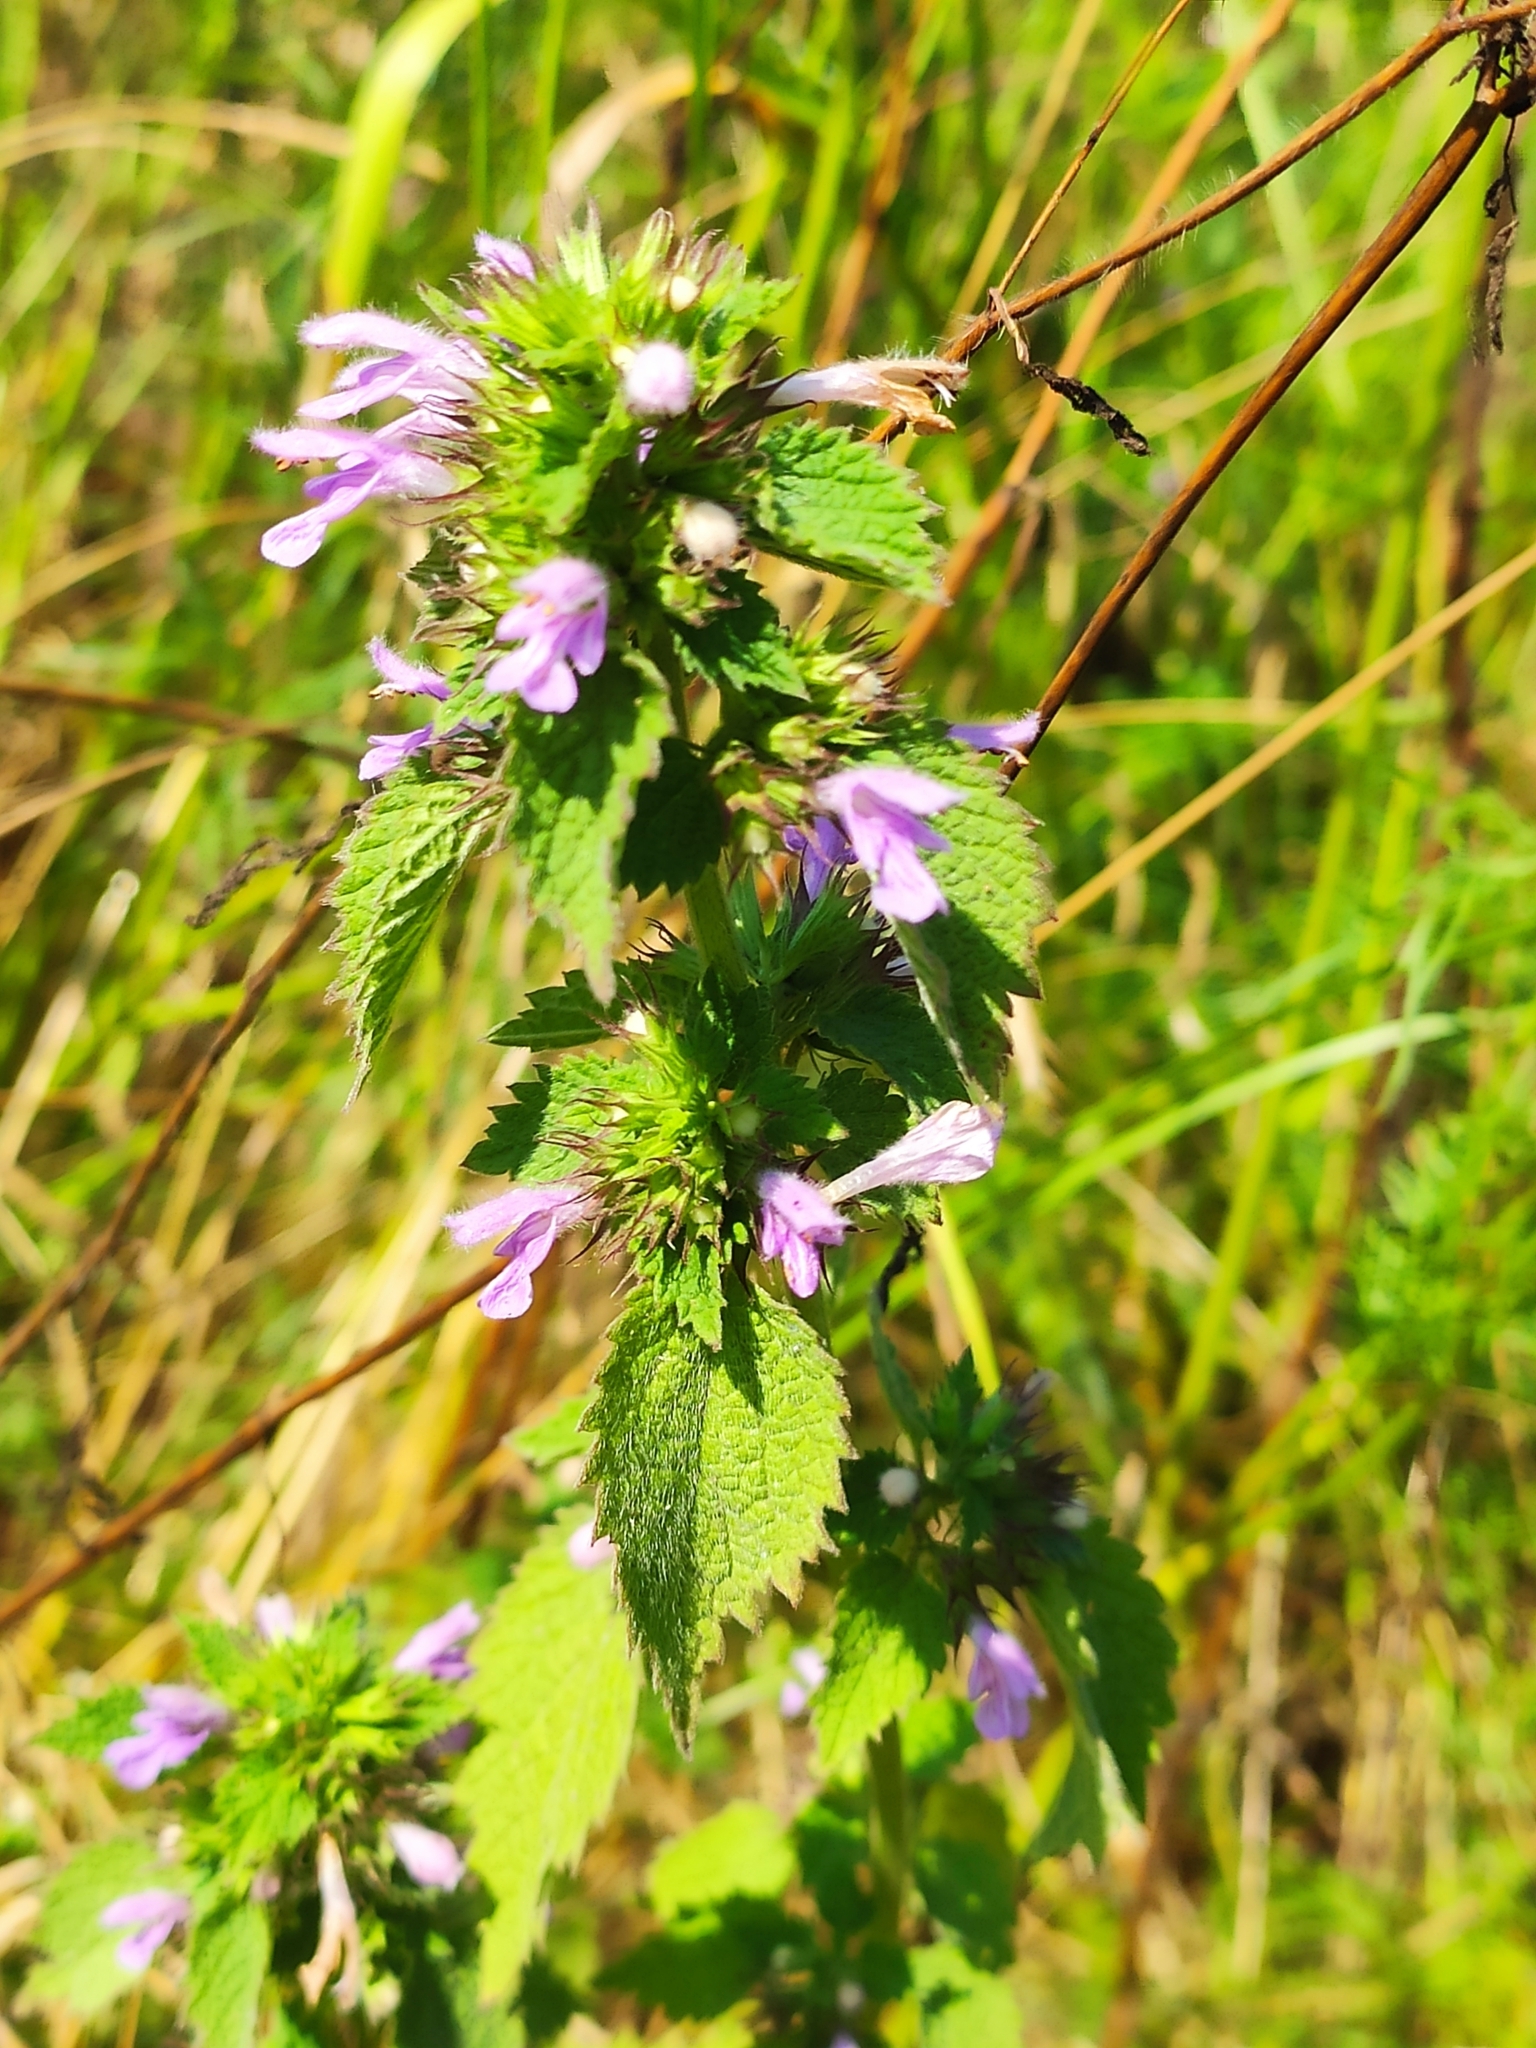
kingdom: Plantae
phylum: Tracheophyta
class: Magnoliopsida
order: Lamiales
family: Lamiaceae
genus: Ballota
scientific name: Ballota nigra
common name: Black horehound
